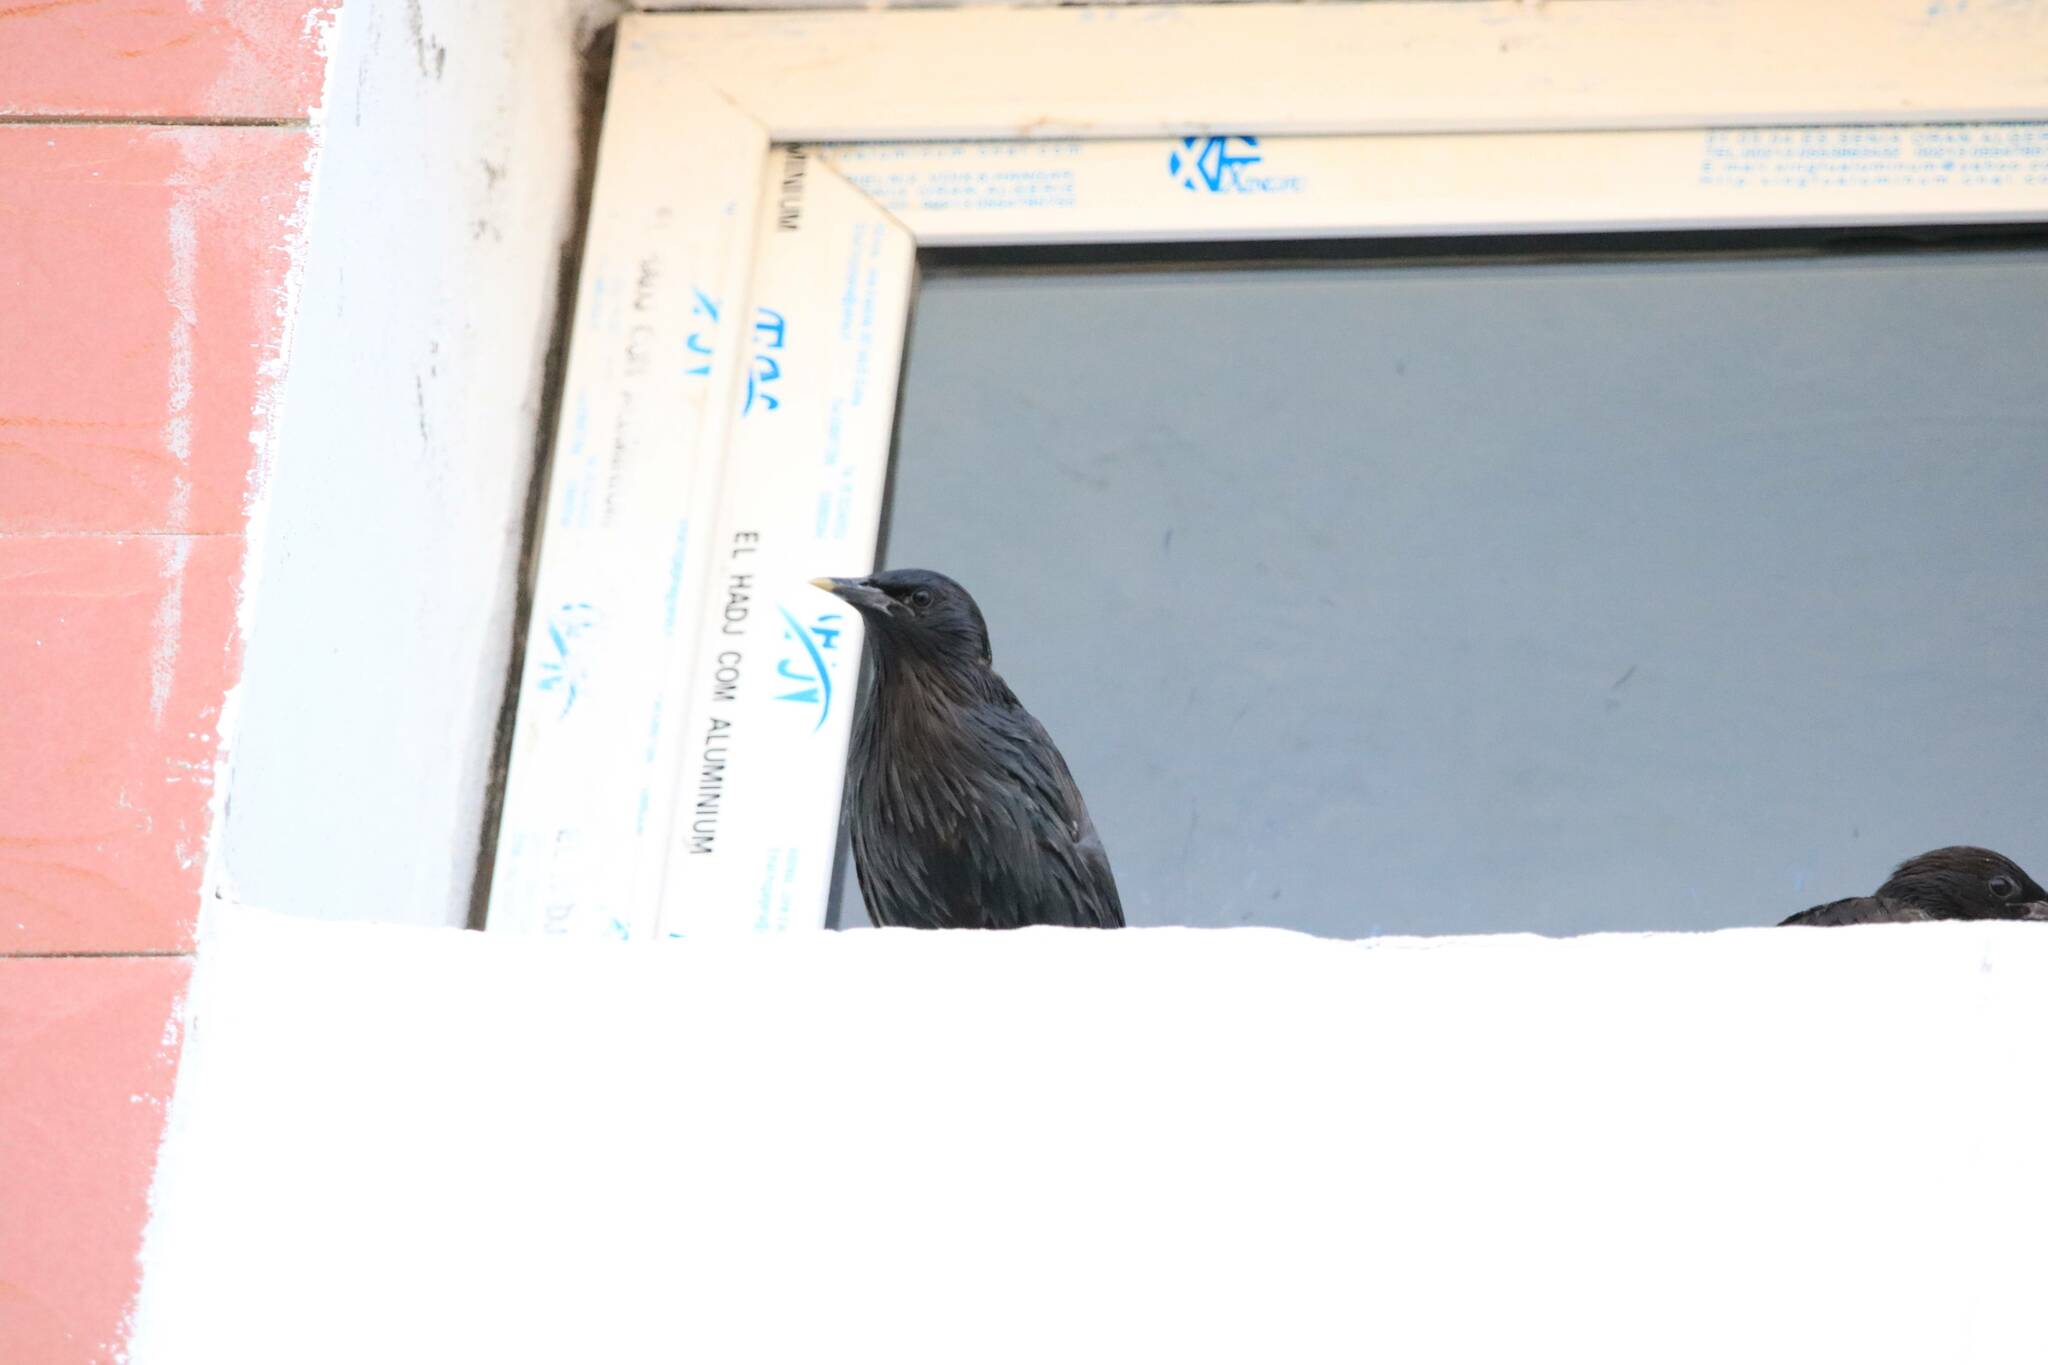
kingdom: Animalia
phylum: Chordata
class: Aves
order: Passeriformes
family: Sturnidae
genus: Sturnus
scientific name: Sturnus unicolor
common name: Spotless starling
